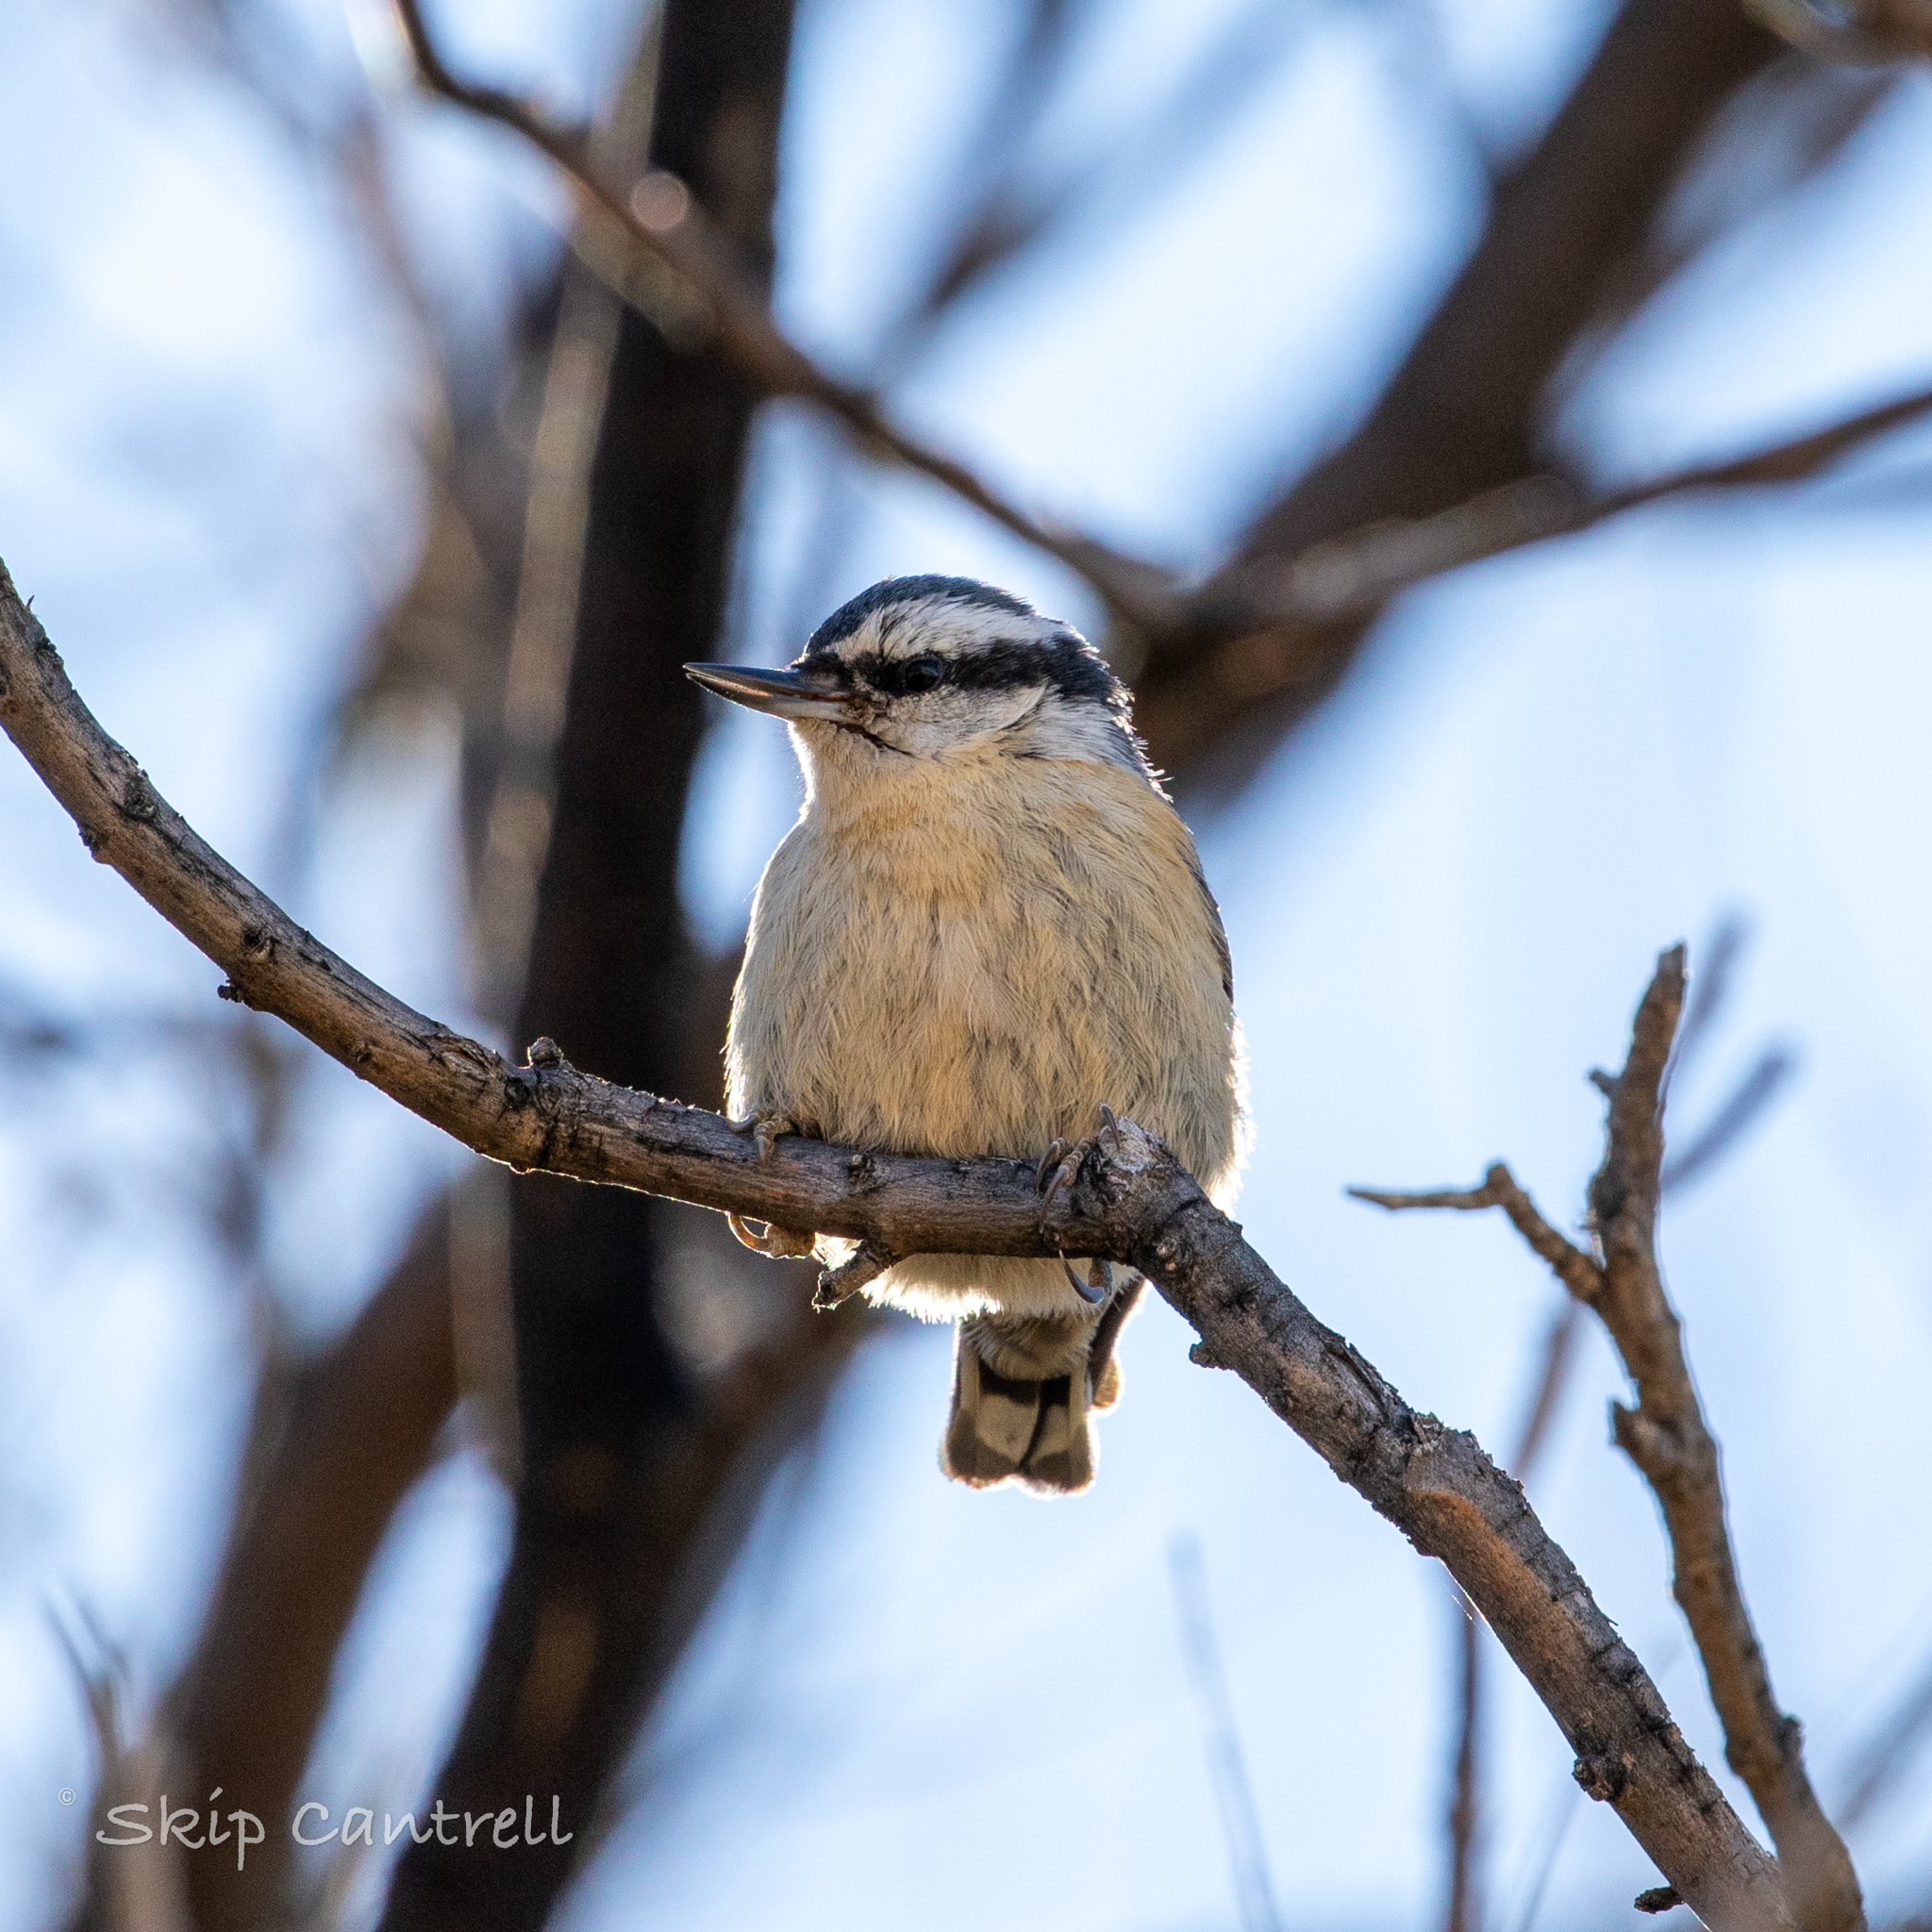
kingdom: Animalia
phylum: Chordata
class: Aves
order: Passeriformes
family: Sittidae
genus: Sitta
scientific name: Sitta canadensis
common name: Red-breasted nuthatch
